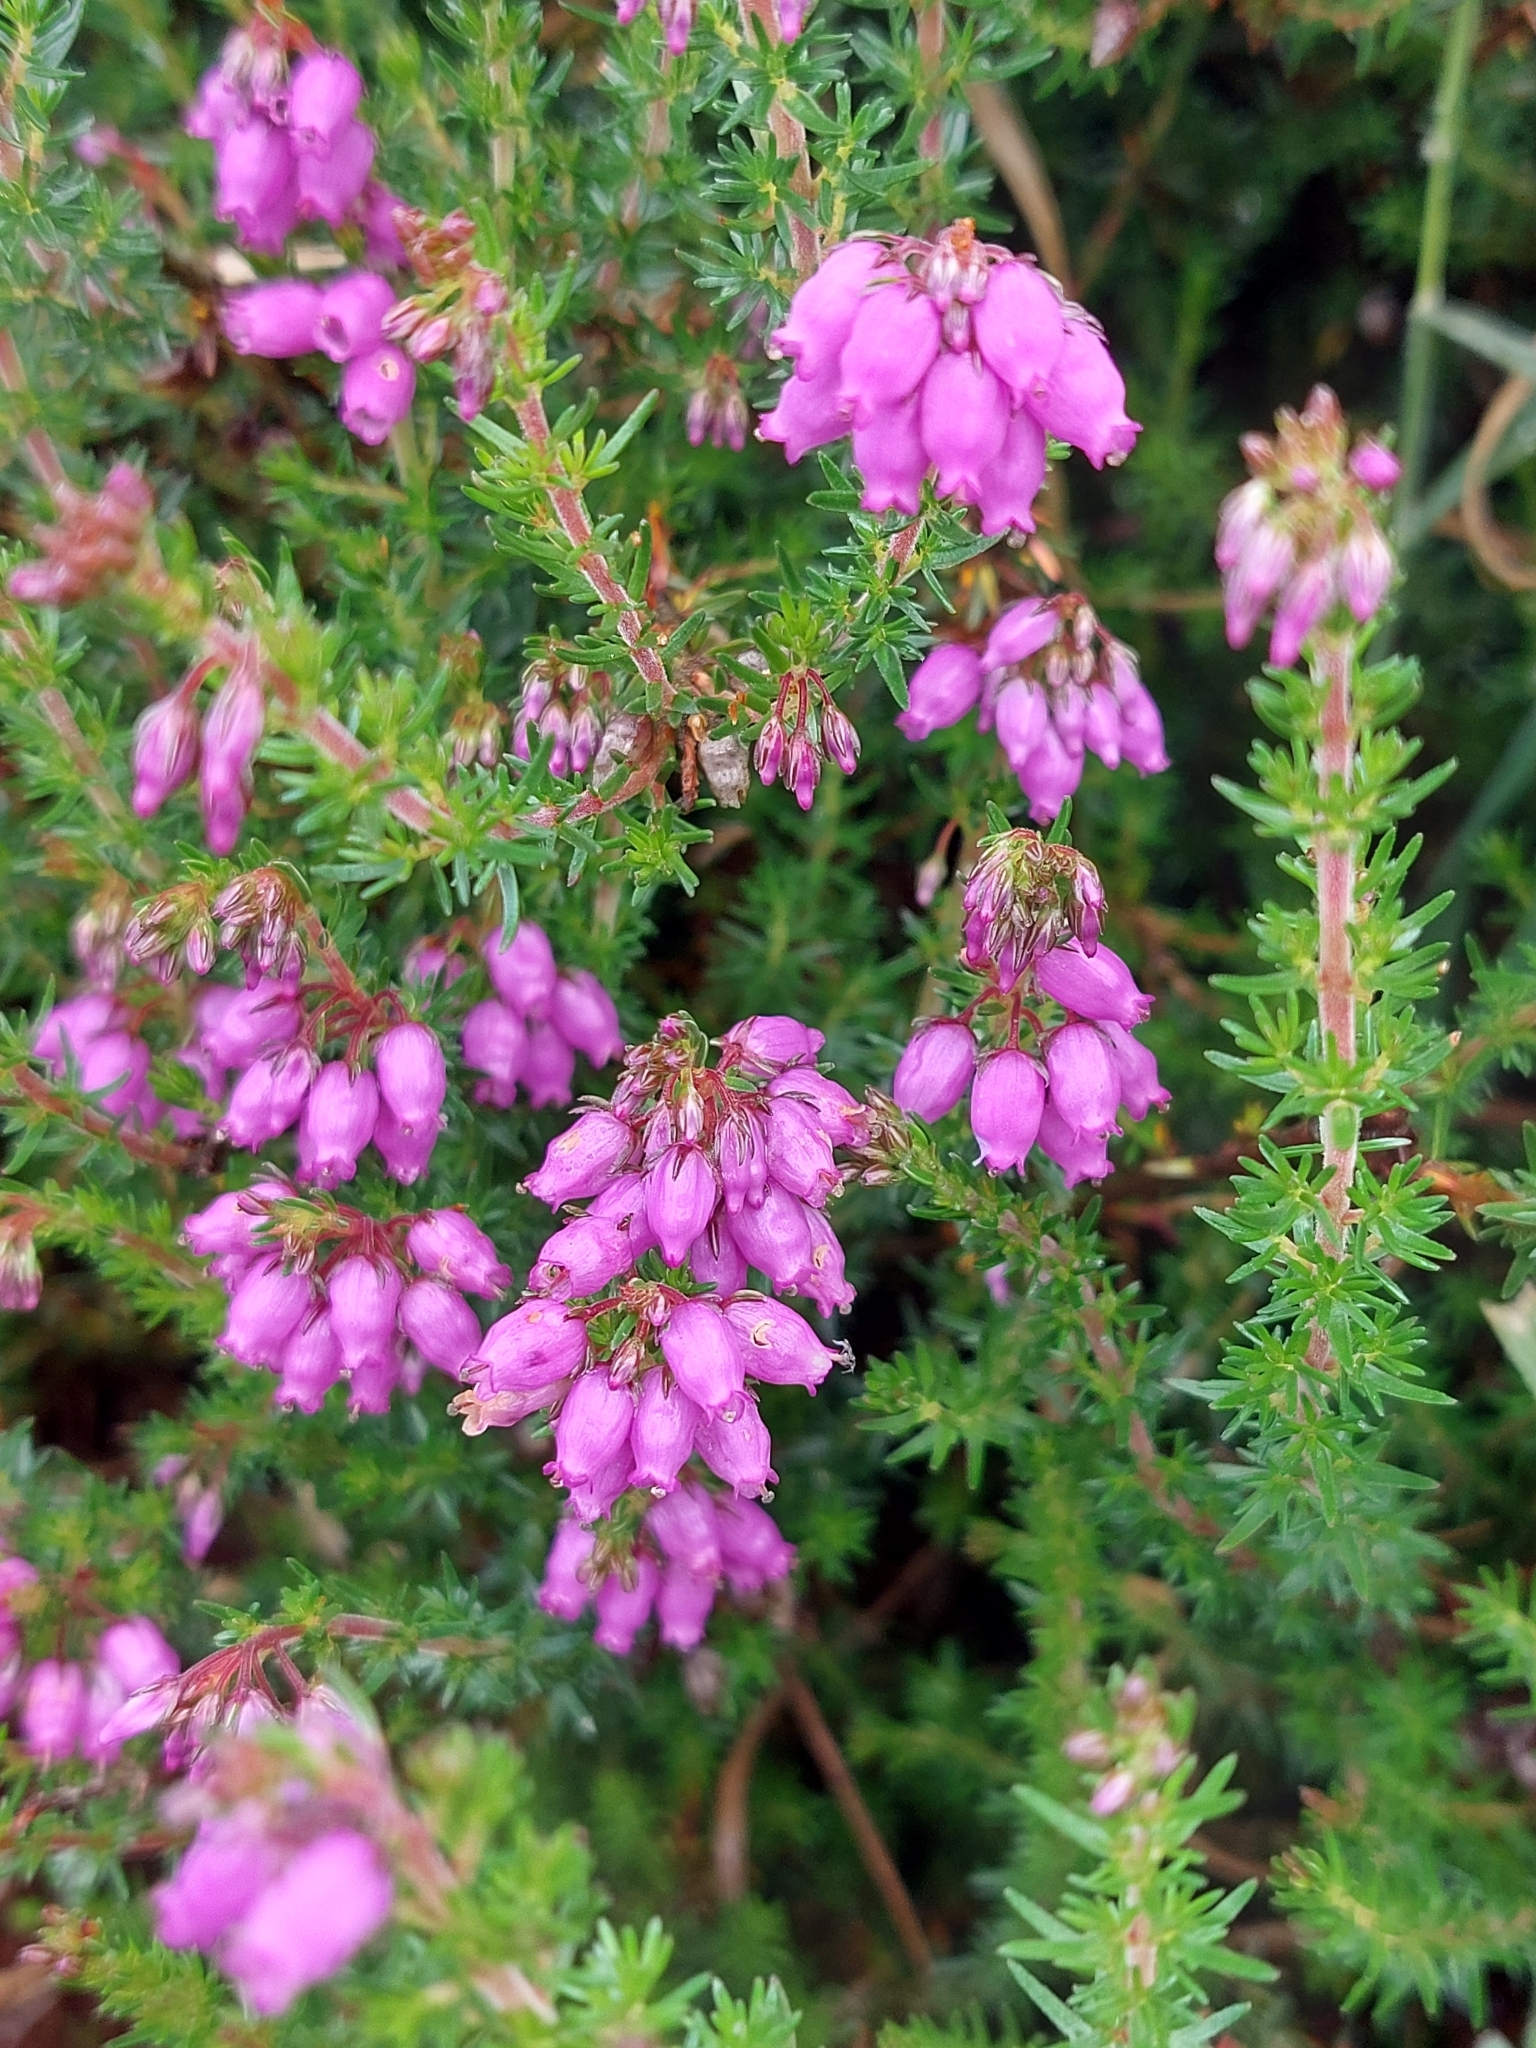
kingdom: Plantae
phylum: Tracheophyta
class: Magnoliopsida
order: Ericales
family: Ericaceae
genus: Erica
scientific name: Erica cinerea
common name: Bell heather
